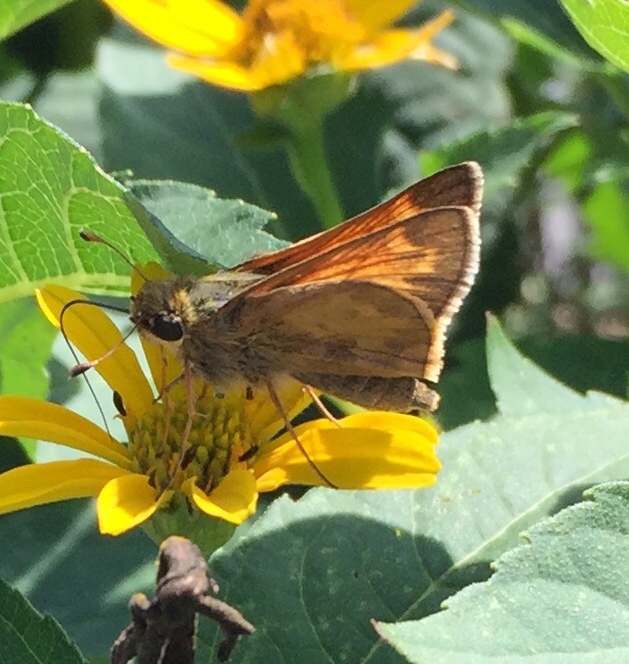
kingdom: Animalia
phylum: Arthropoda
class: Insecta
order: Lepidoptera
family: Hesperiidae
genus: Atalopedes
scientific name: Atalopedes
